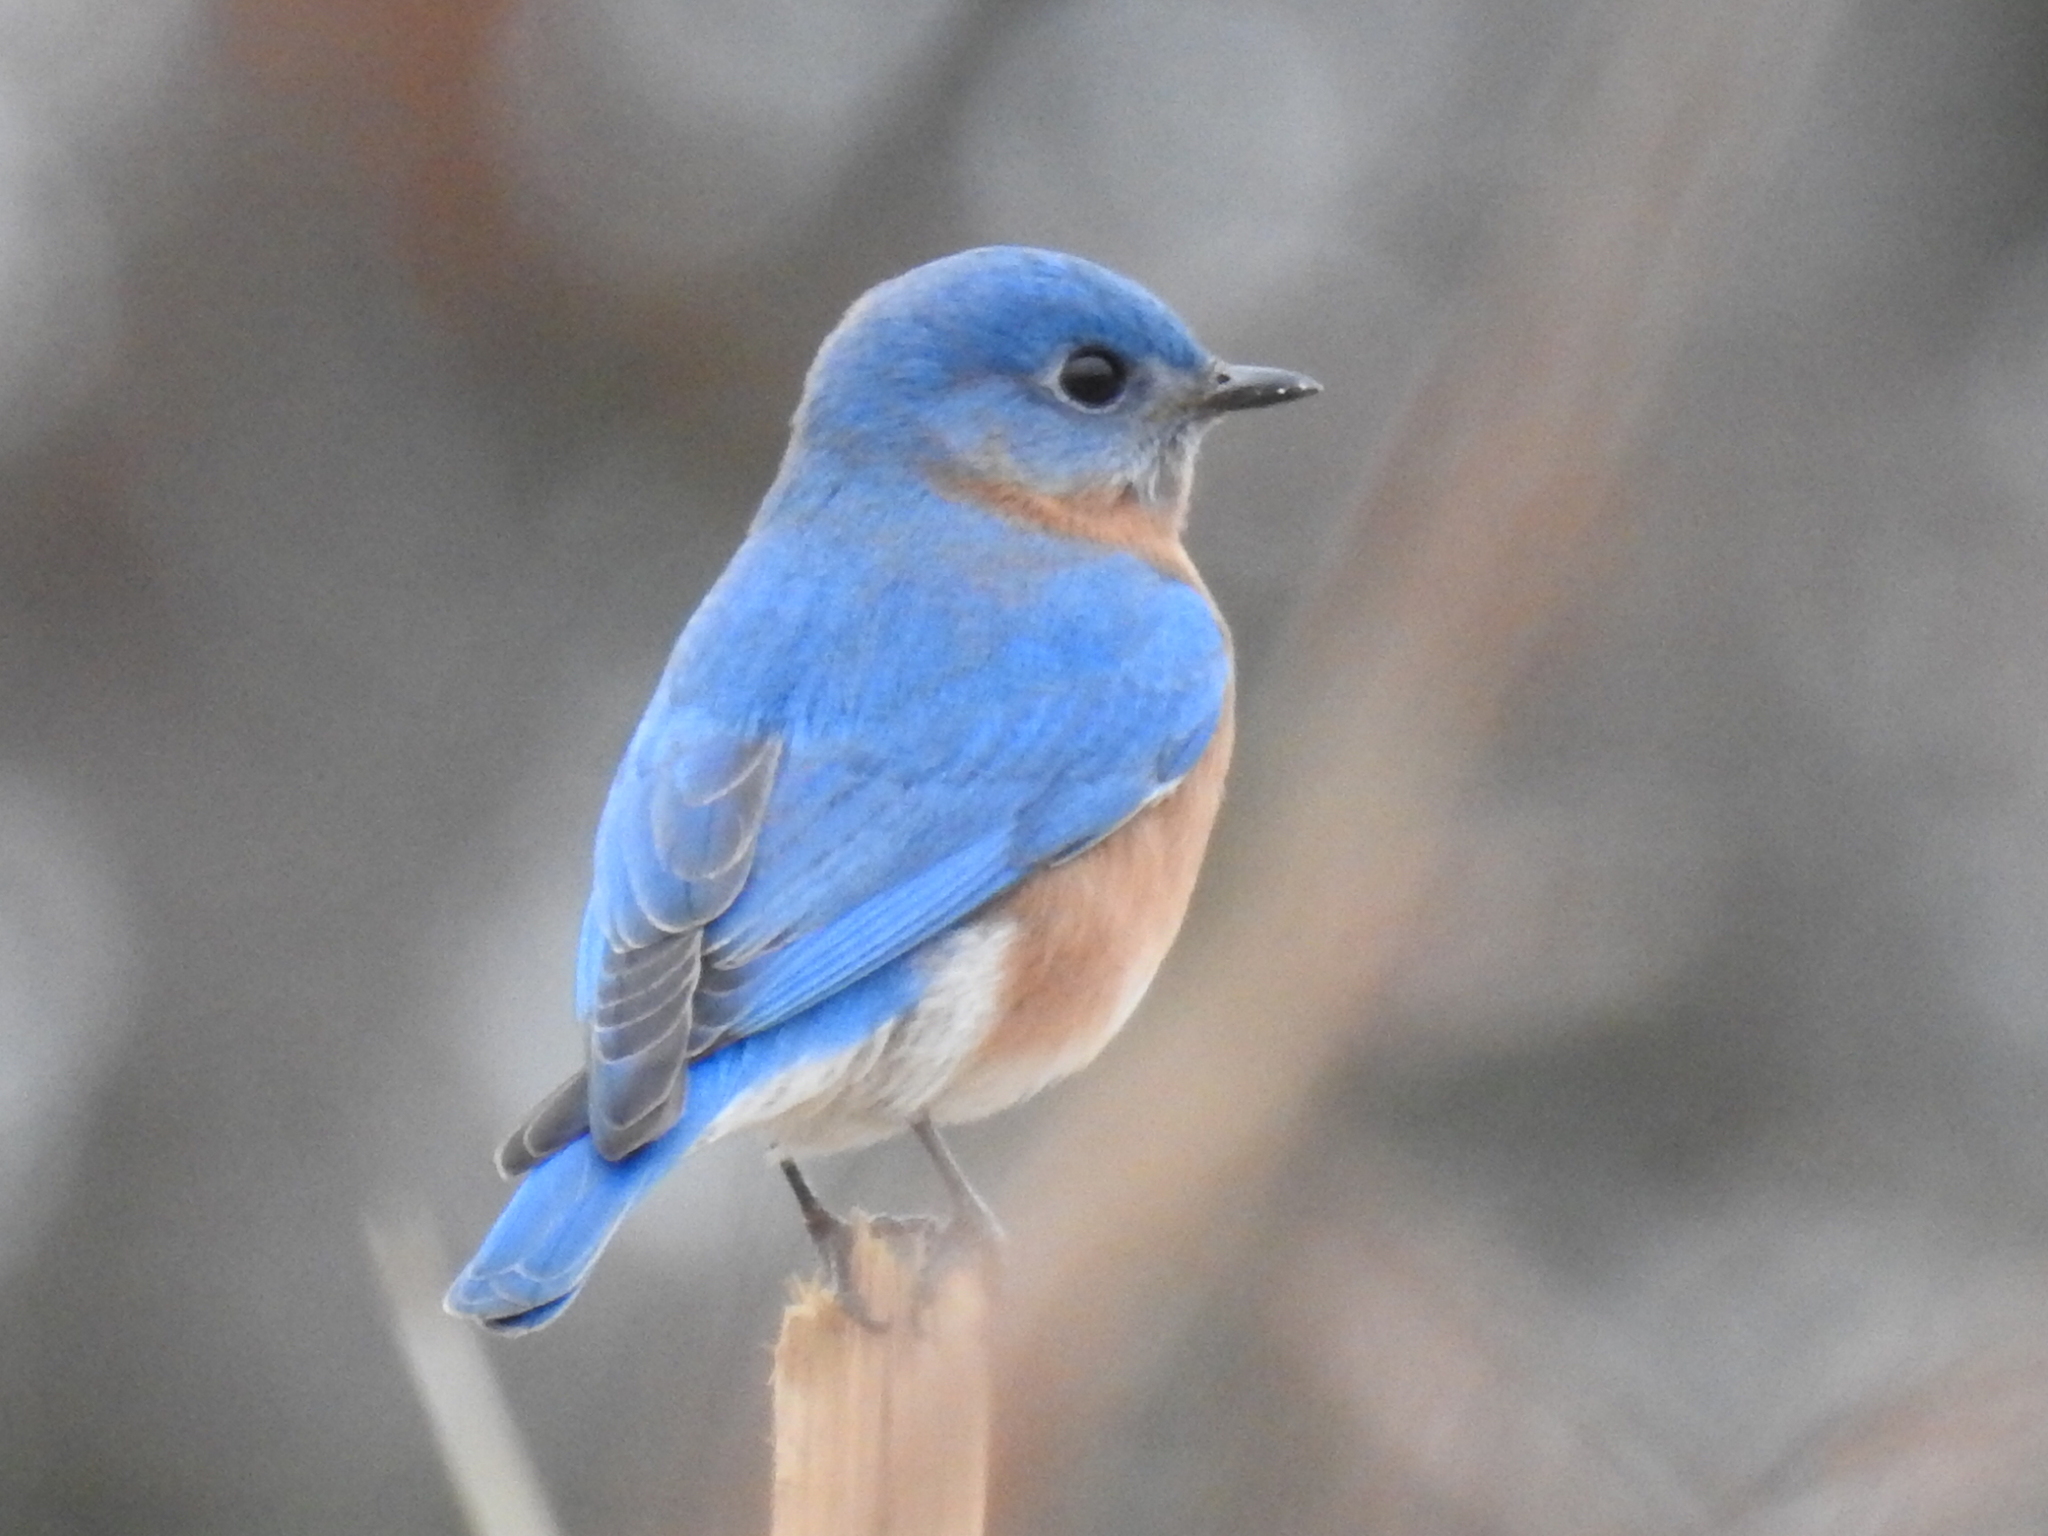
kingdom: Animalia
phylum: Chordata
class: Aves
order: Passeriformes
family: Turdidae
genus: Sialia
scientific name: Sialia sialis
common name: Eastern bluebird
